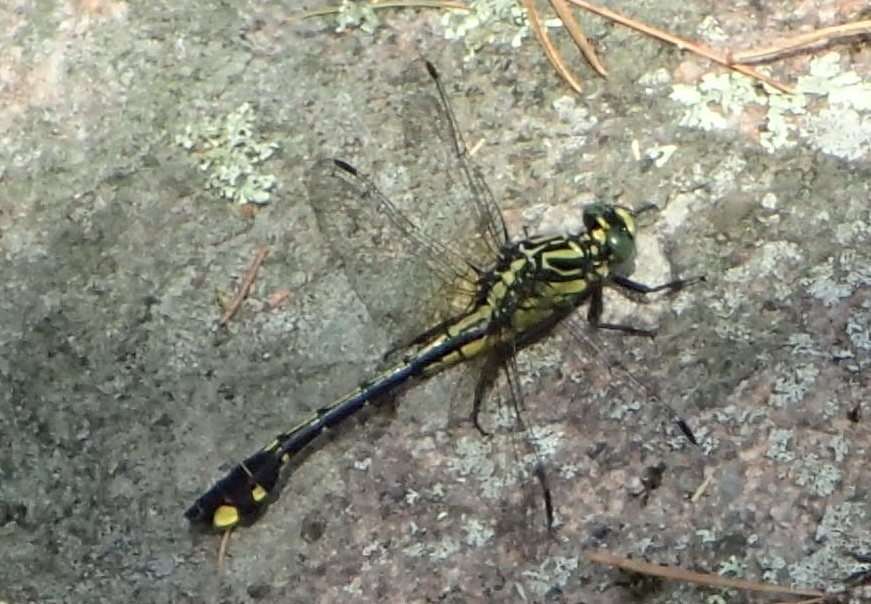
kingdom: Animalia
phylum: Arthropoda
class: Insecta
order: Odonata
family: Gomphidae
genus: Gomphurus
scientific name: Gomphurus vastus
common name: Cobra clubtail
